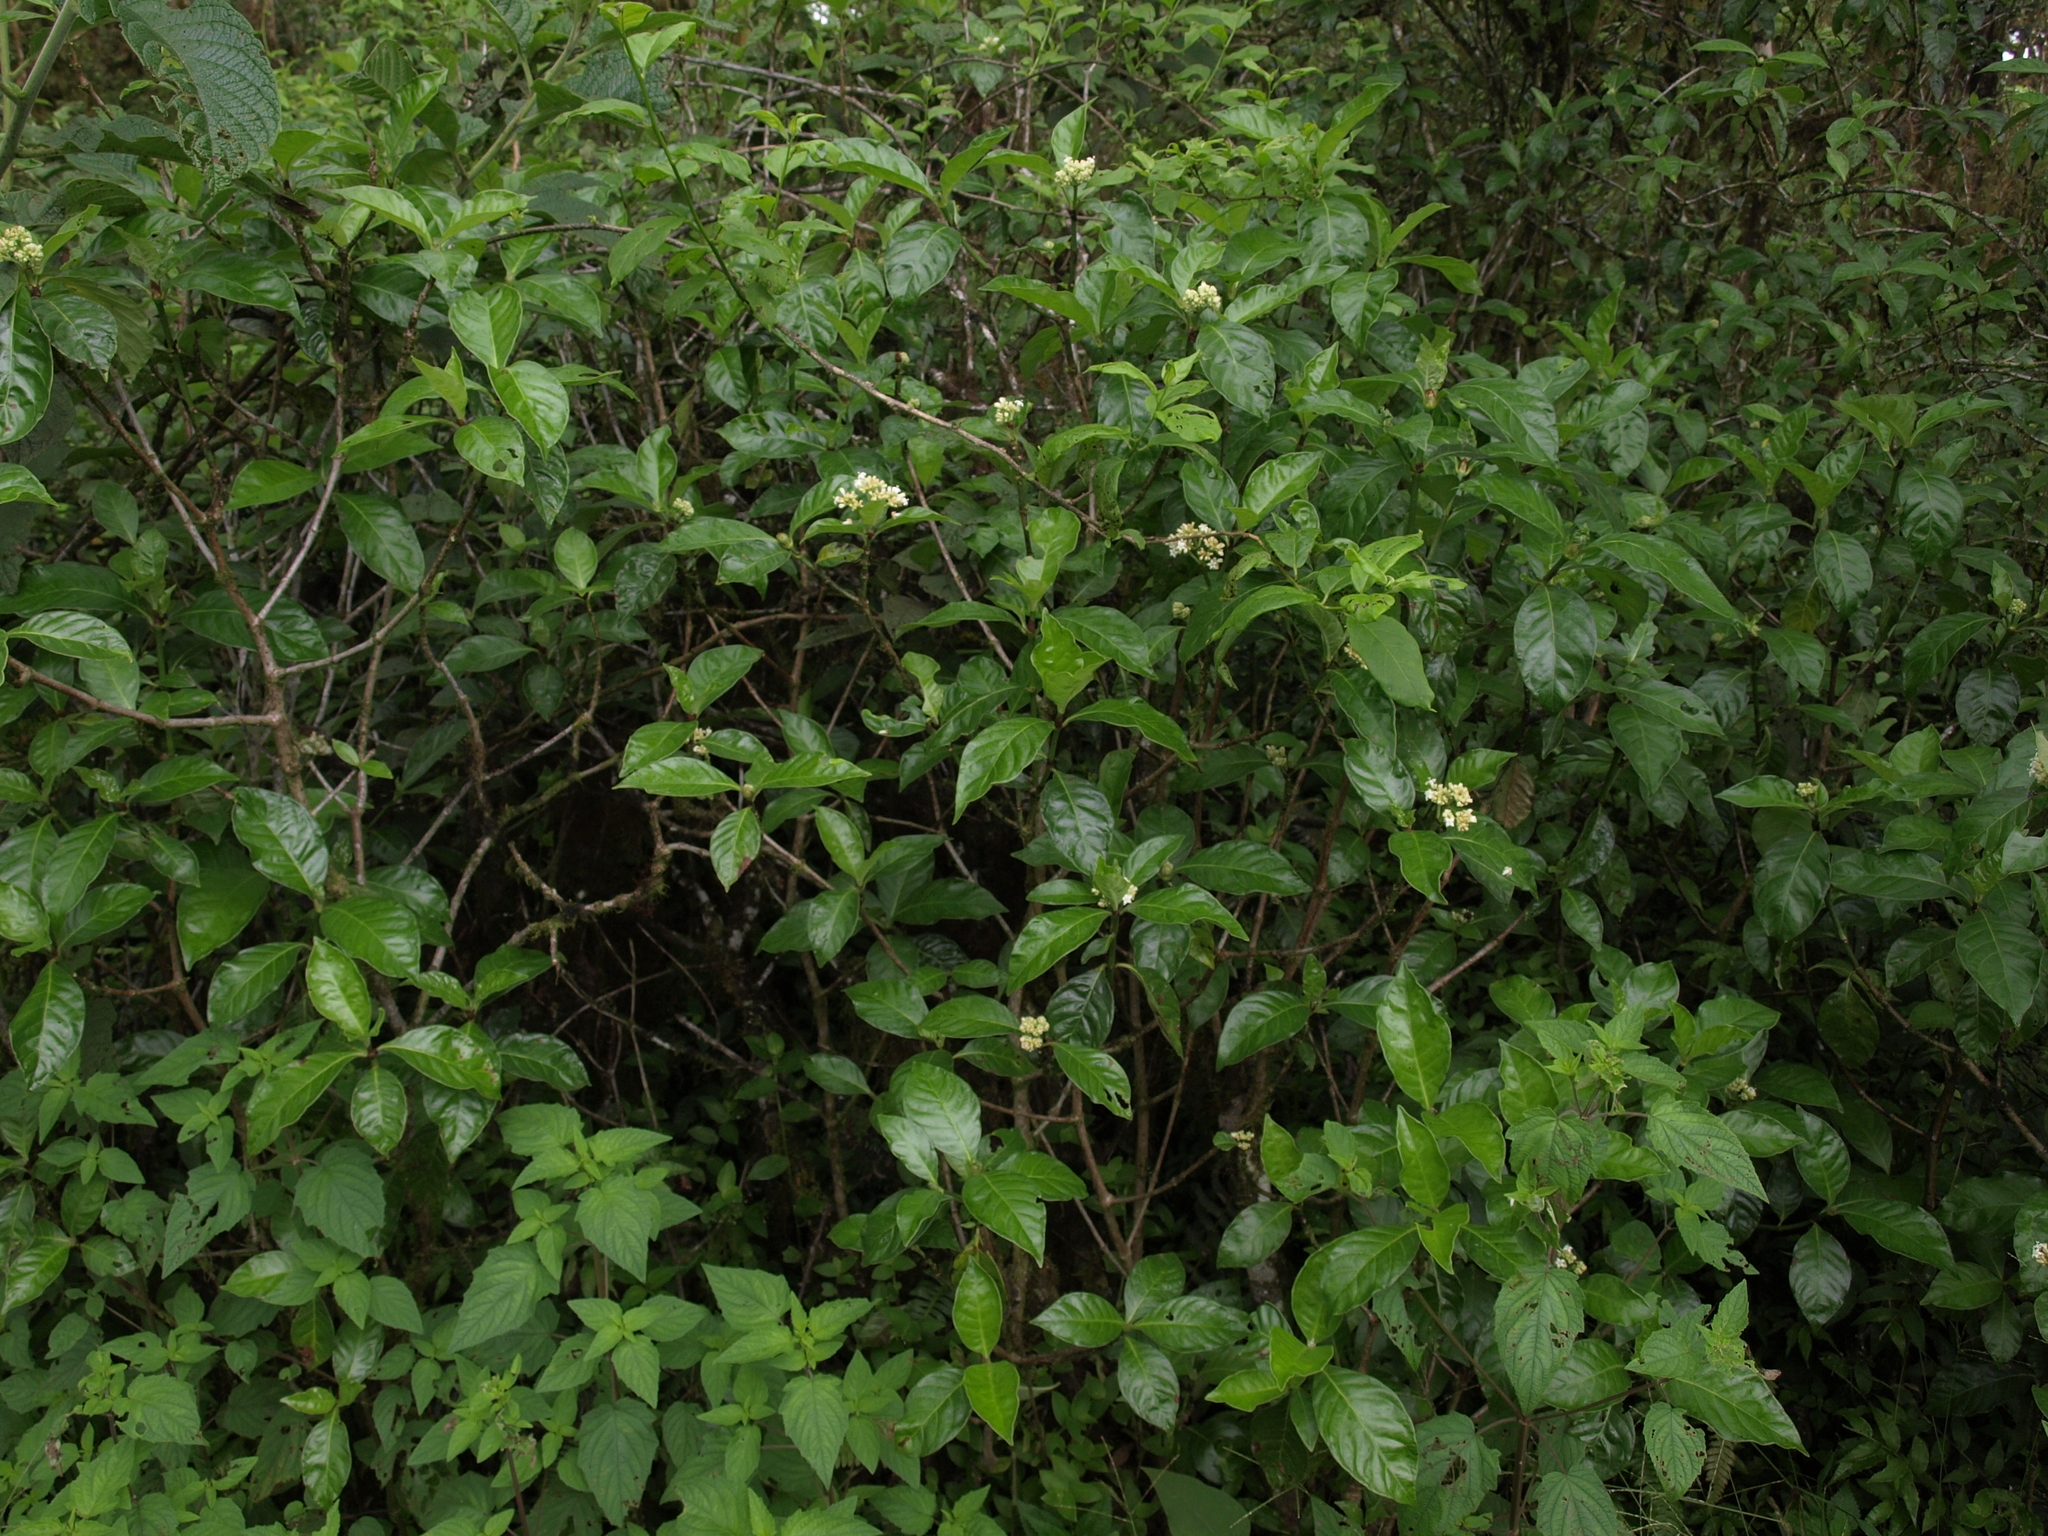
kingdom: Plantae
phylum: Tracheophyta
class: Magnoliopsida
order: Gentianales
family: Rubiaceae
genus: Psychotria
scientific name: Psychotria rufipes
